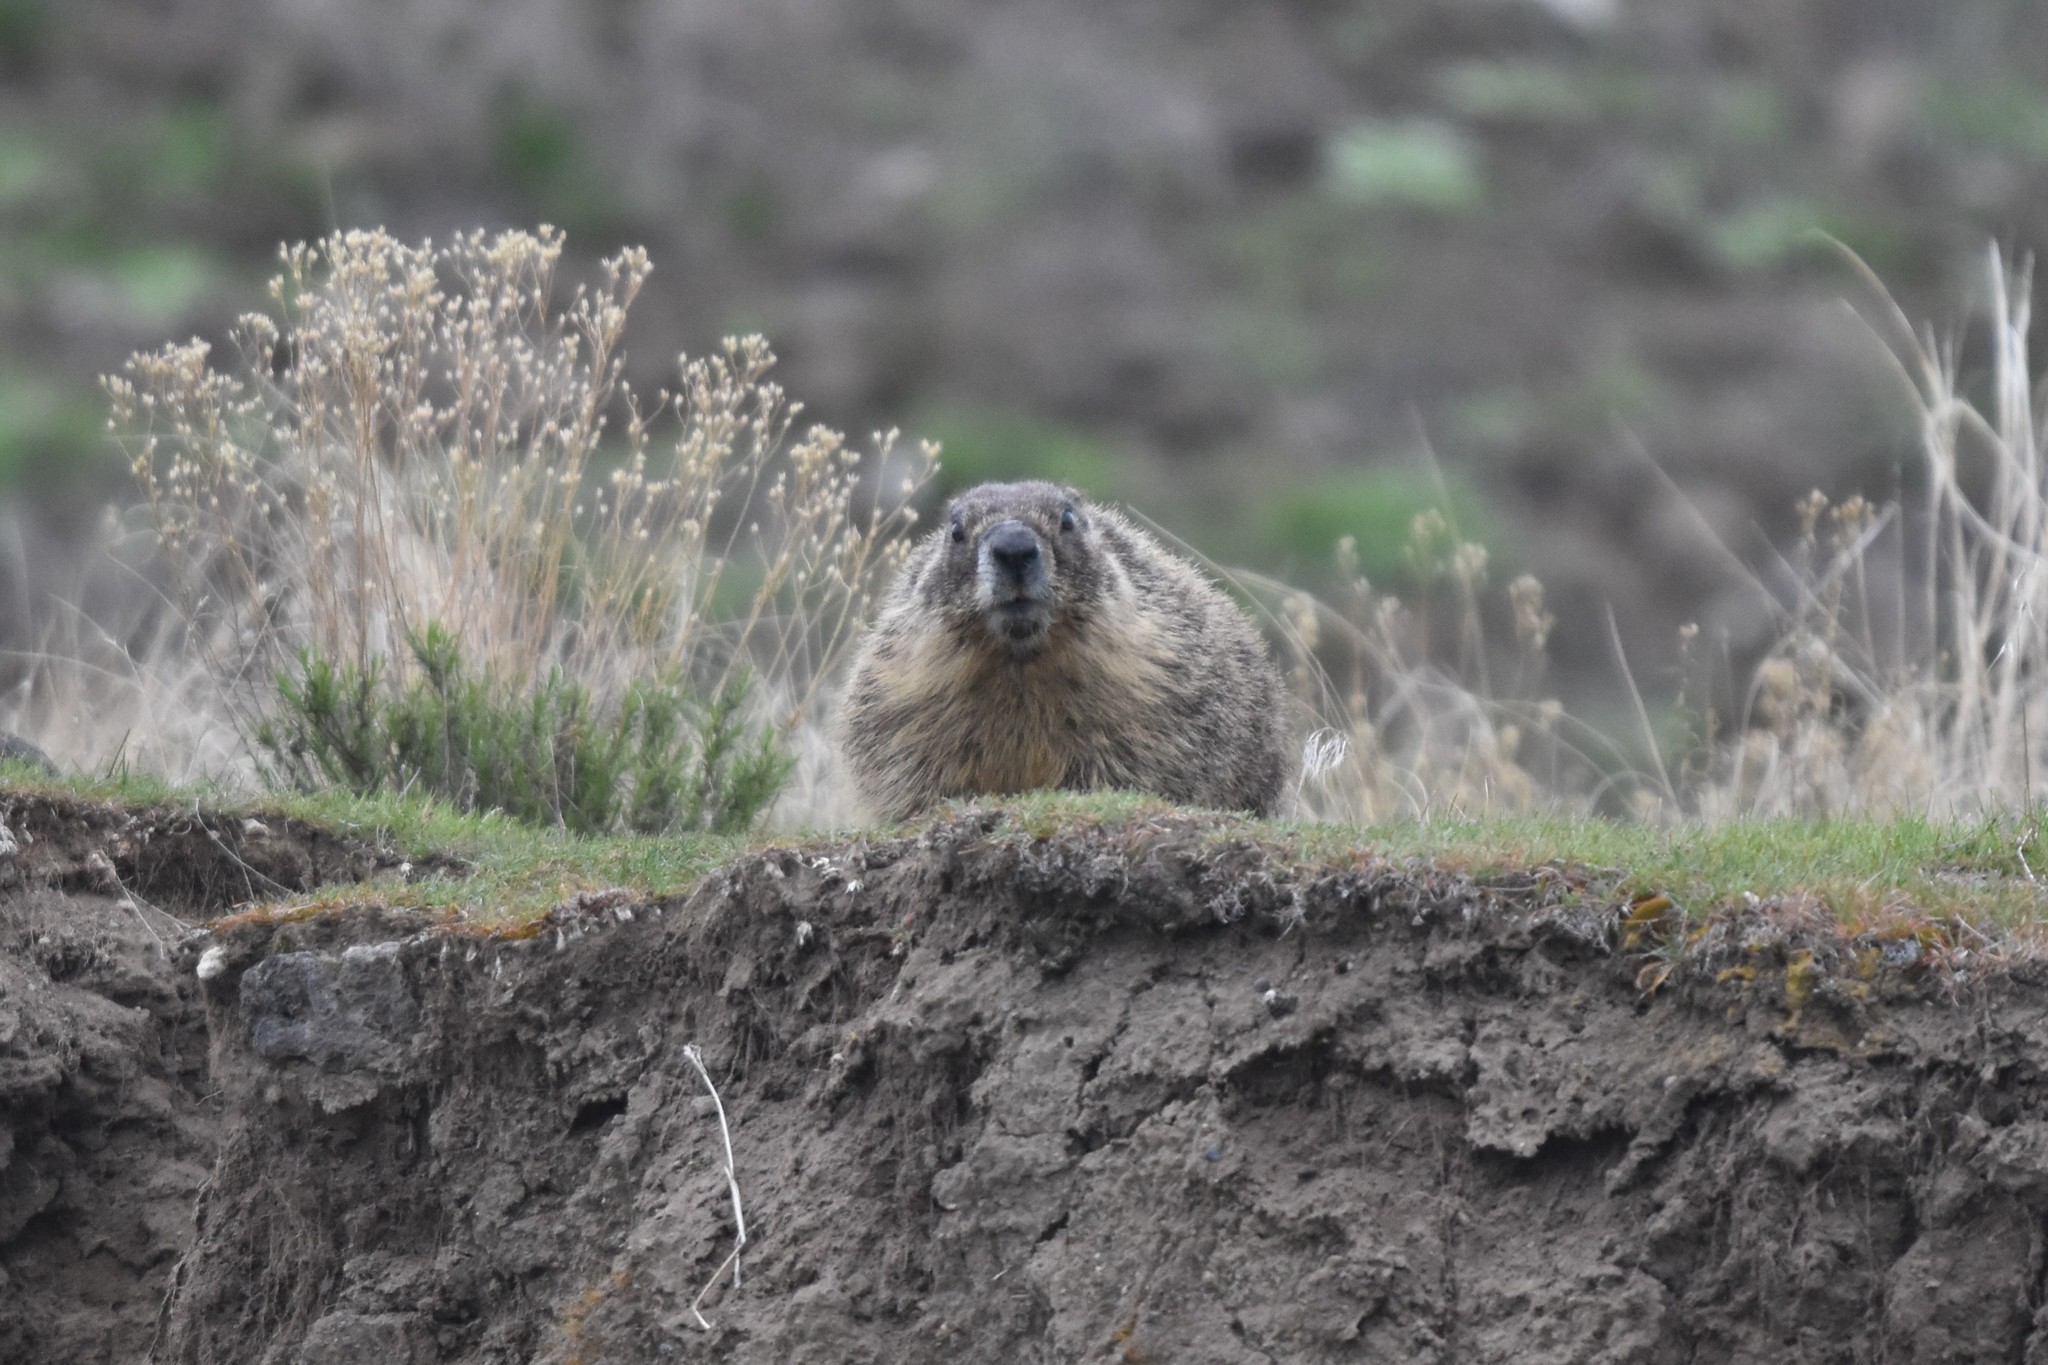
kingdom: Animalia
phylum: Chordata
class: Mammalia
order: Rodentia
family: Sciuridae
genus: Marmota
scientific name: Marmota flaviventris
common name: Yellow-bellied marmot
